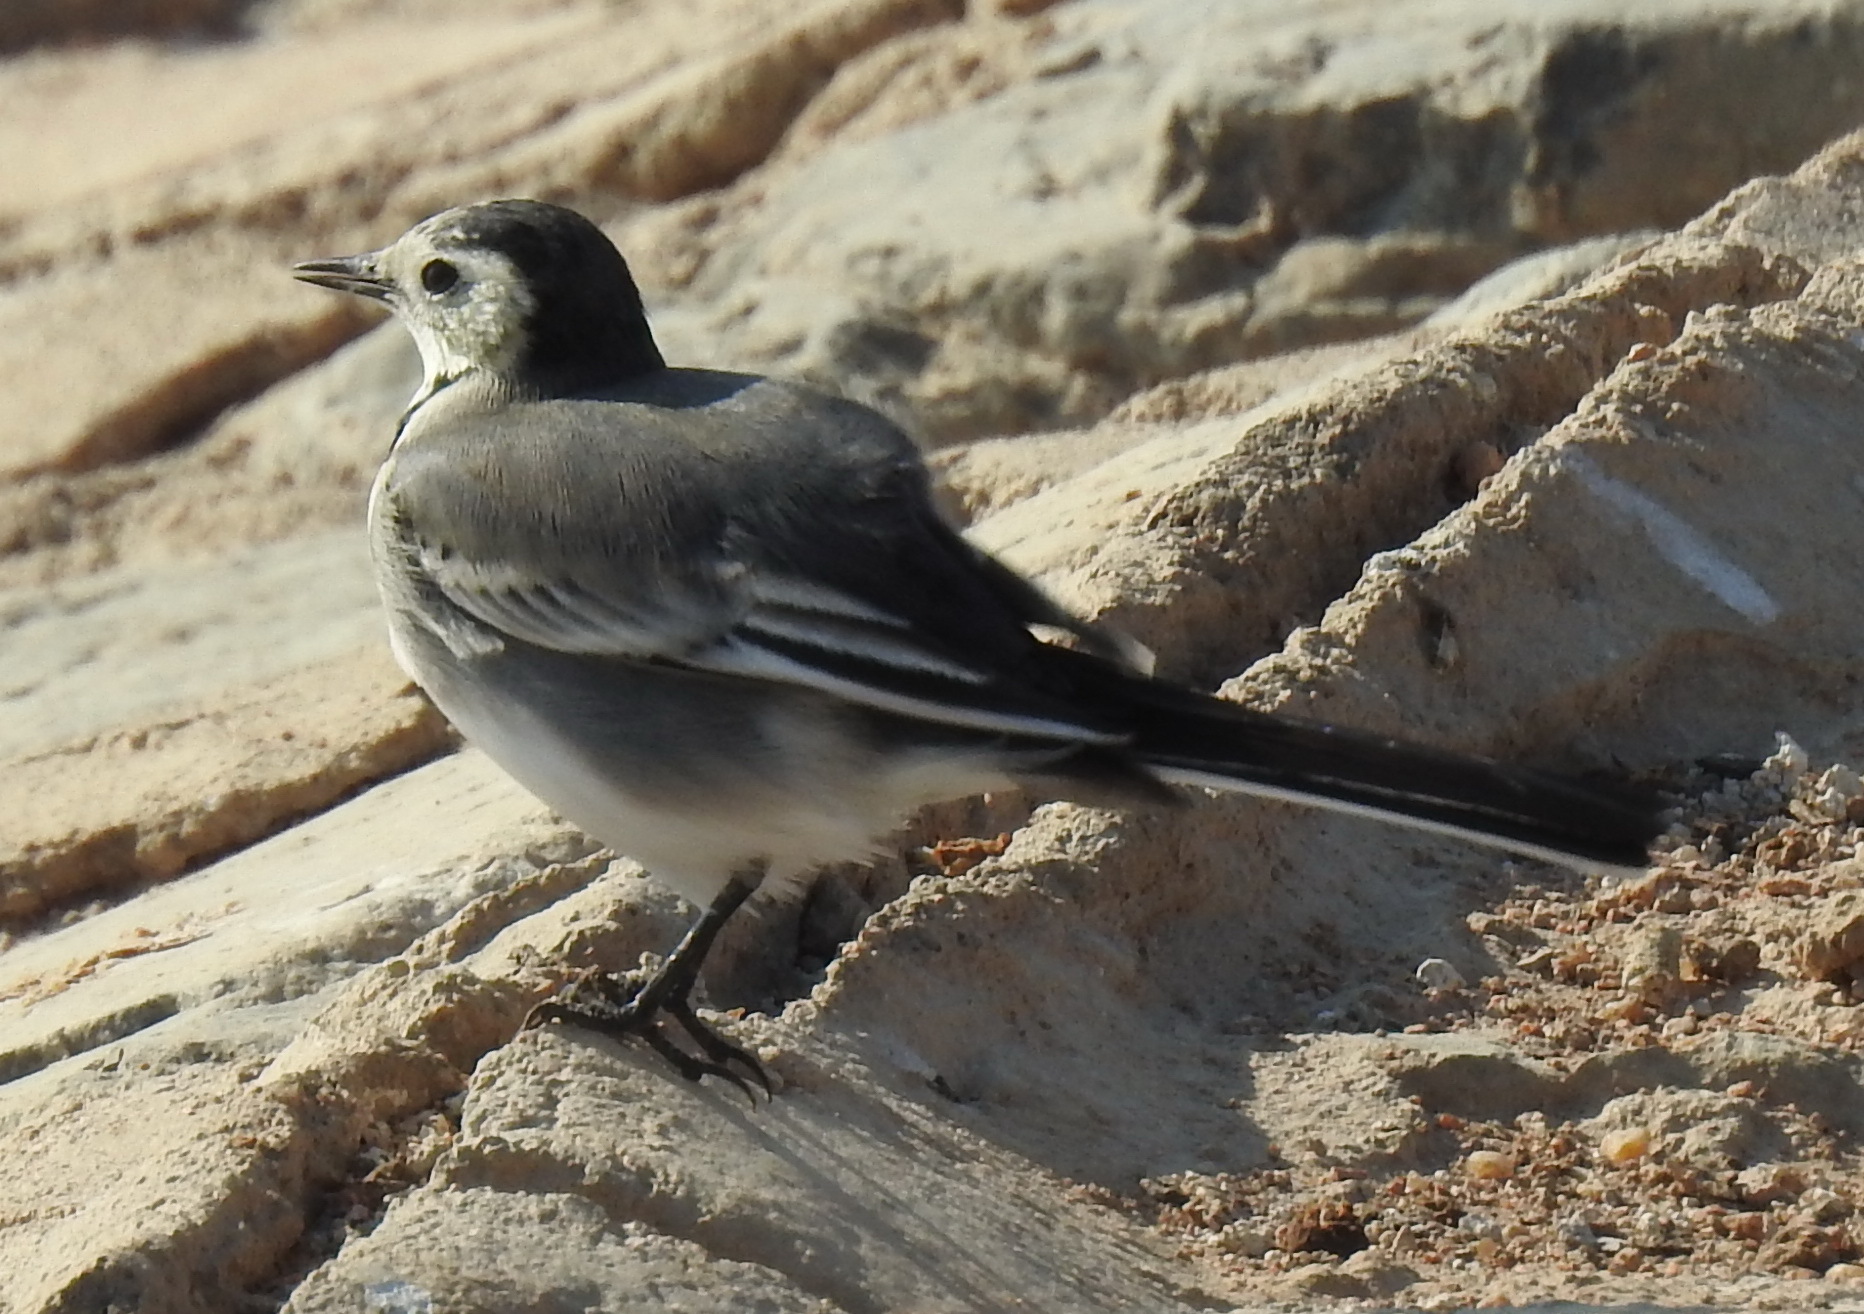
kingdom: Animalia
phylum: Chordata
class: Aves
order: Passeriformes
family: Motacillidae
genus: Motacilla
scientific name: Motacilla alba
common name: White wagtail
